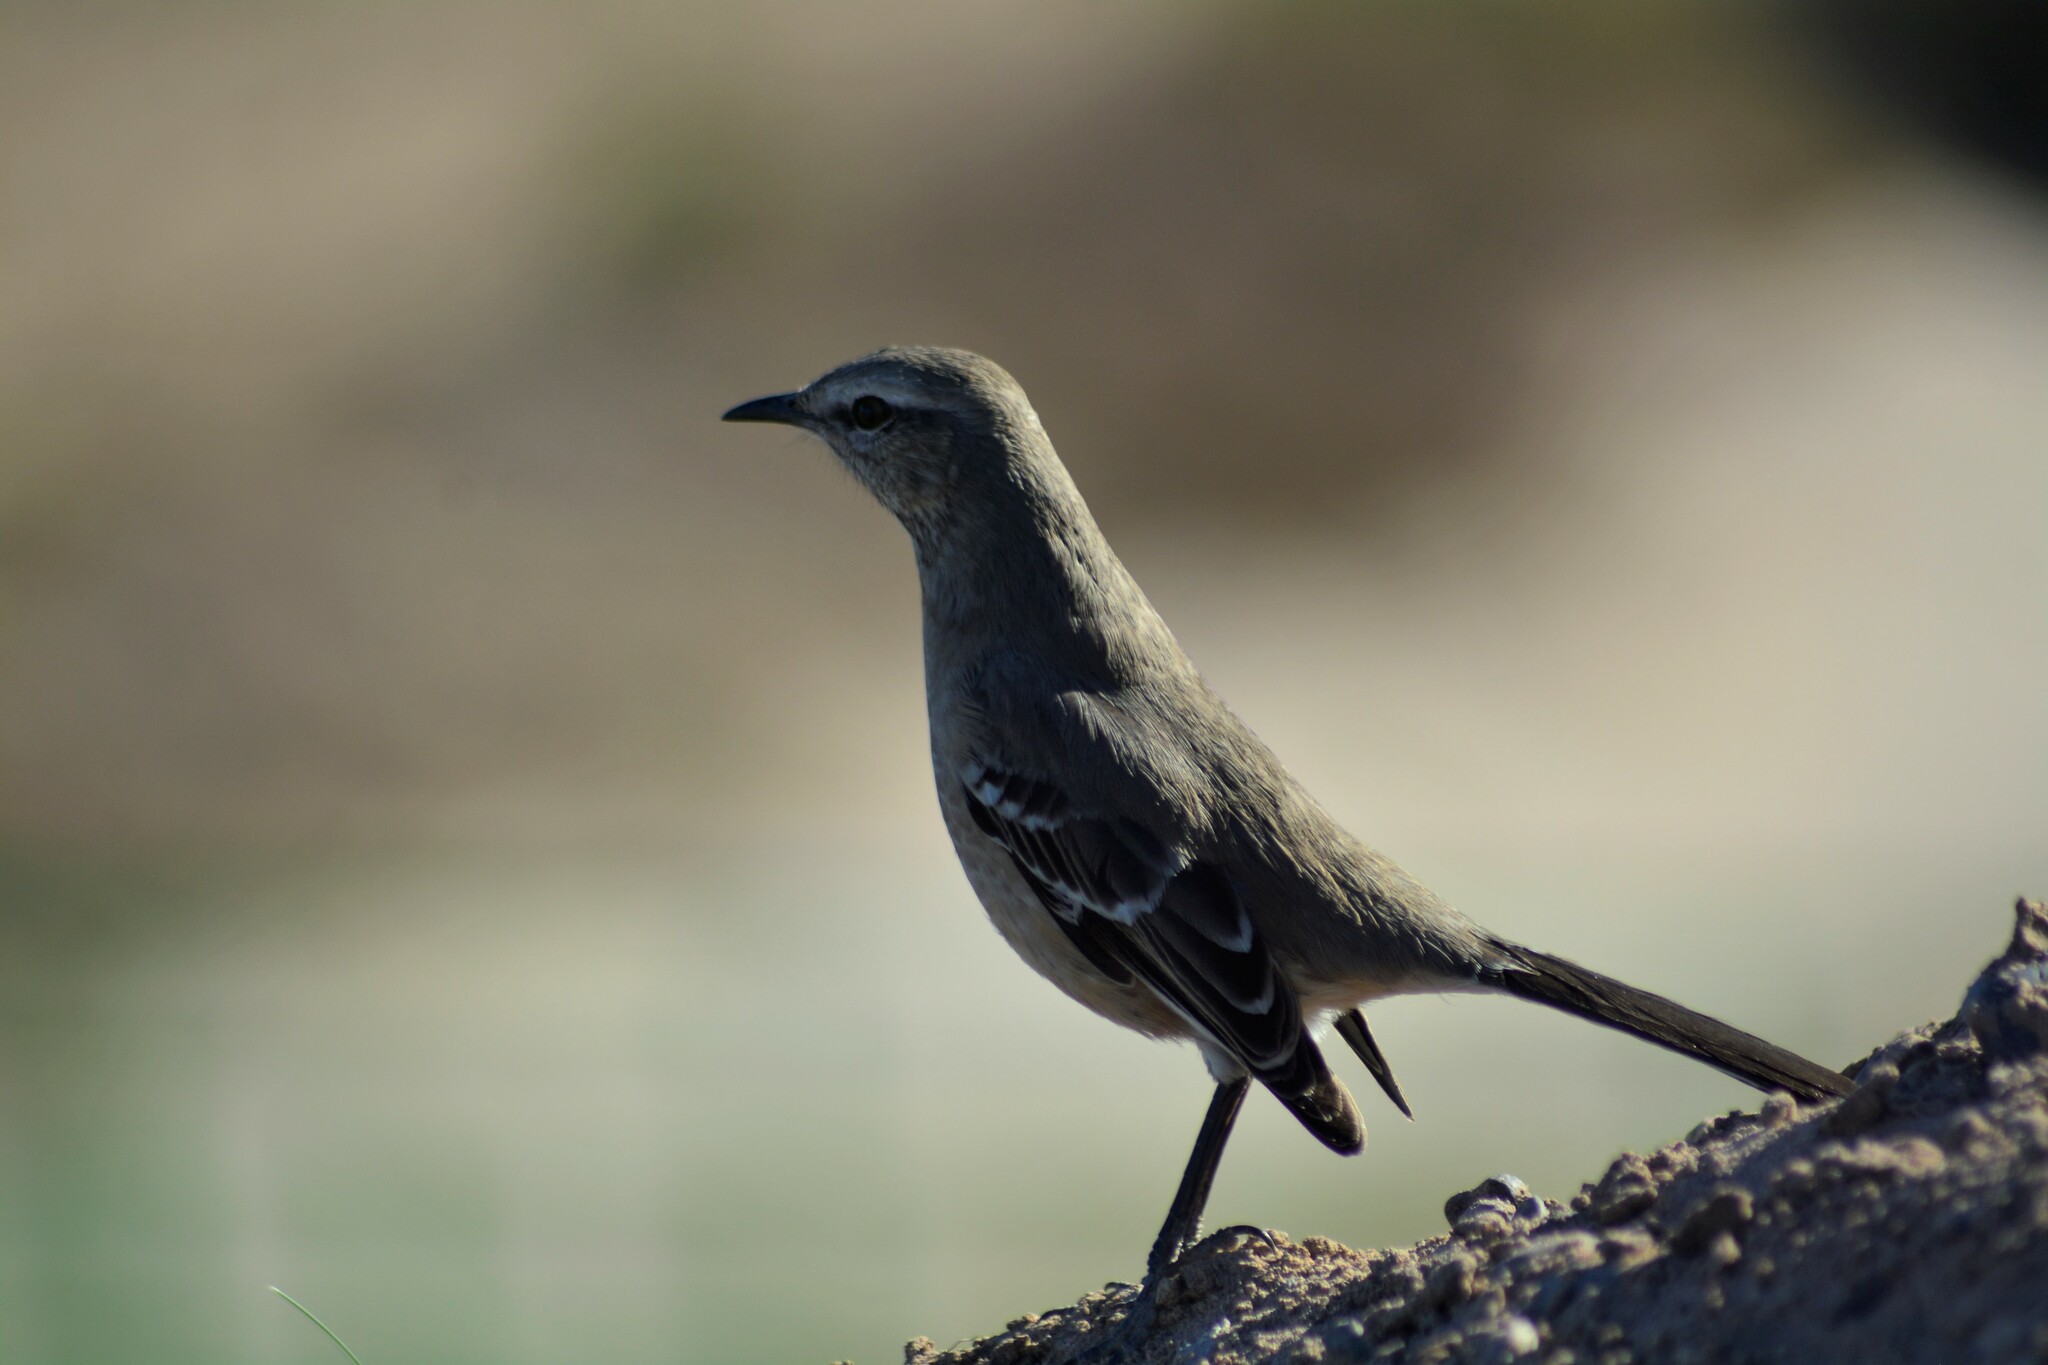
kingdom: Animalia
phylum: Chordata
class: Aves
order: Passeriformes
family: Mimidae
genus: Mimus
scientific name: Mimus patagonicus
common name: Patagonian mockingbird
